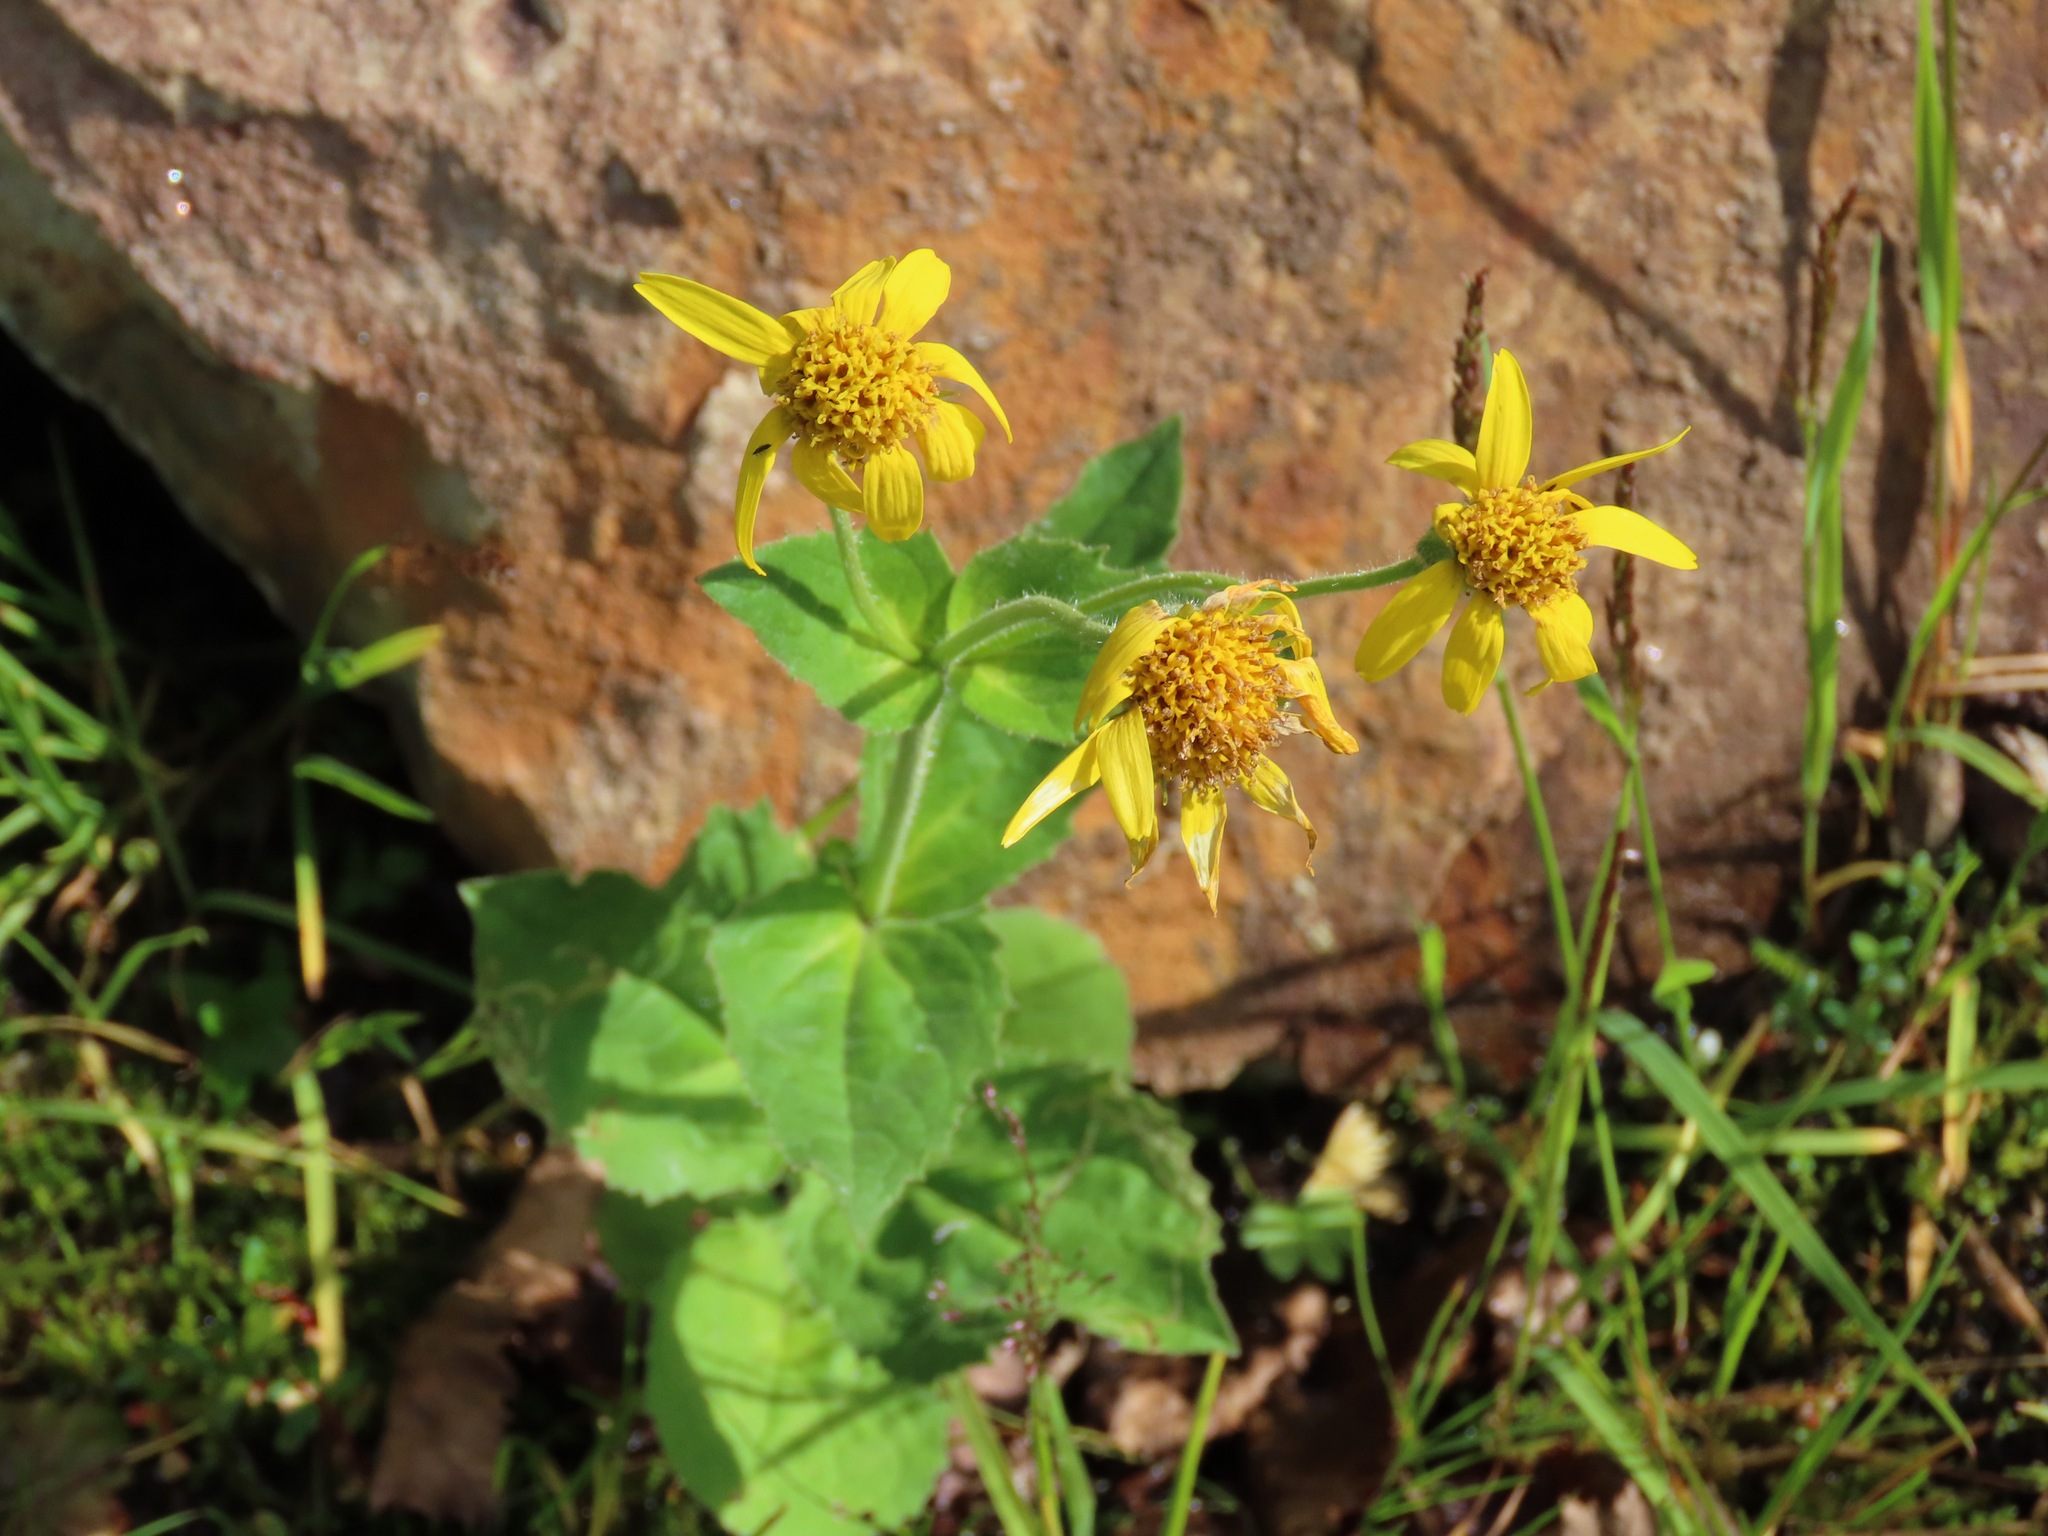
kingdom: Plantae
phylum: Tracheophyta
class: Magnoliopsida
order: Asterales
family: Asteraceae
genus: Arnica
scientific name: Arnica latifolia
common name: Arnica
